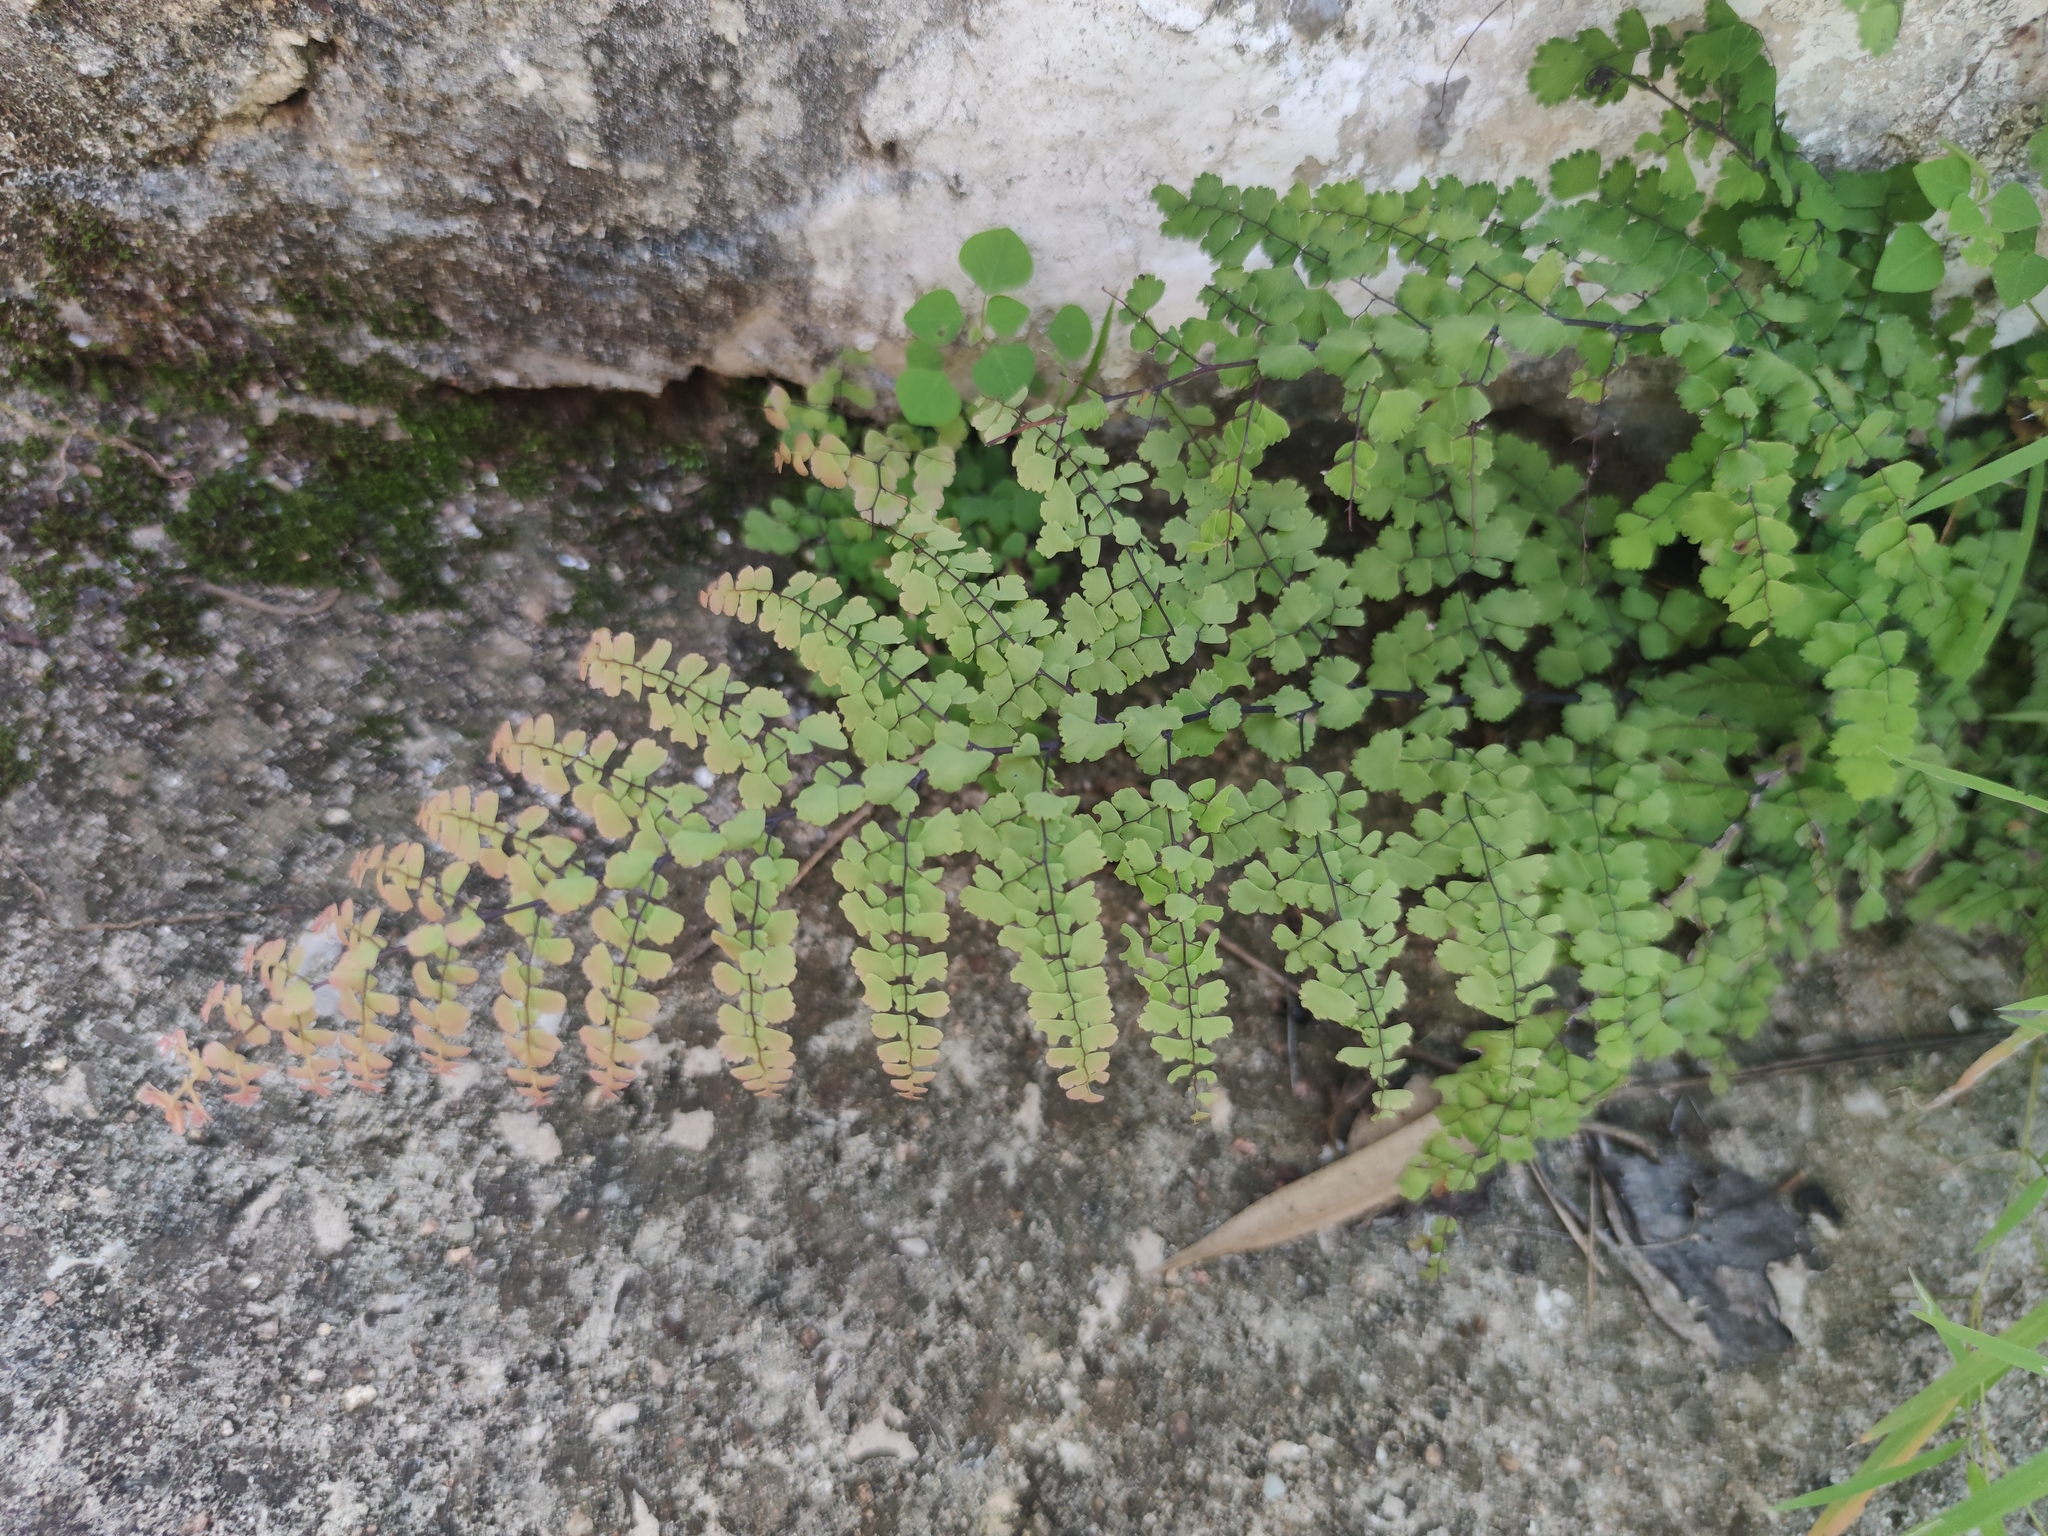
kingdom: Plantae
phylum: Tracheophyta
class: Polypodiopsida
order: Polypodiales
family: Pteridaceae
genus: Adiantum
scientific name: Adiantum concinnum
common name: Brittle maidenhair fern
